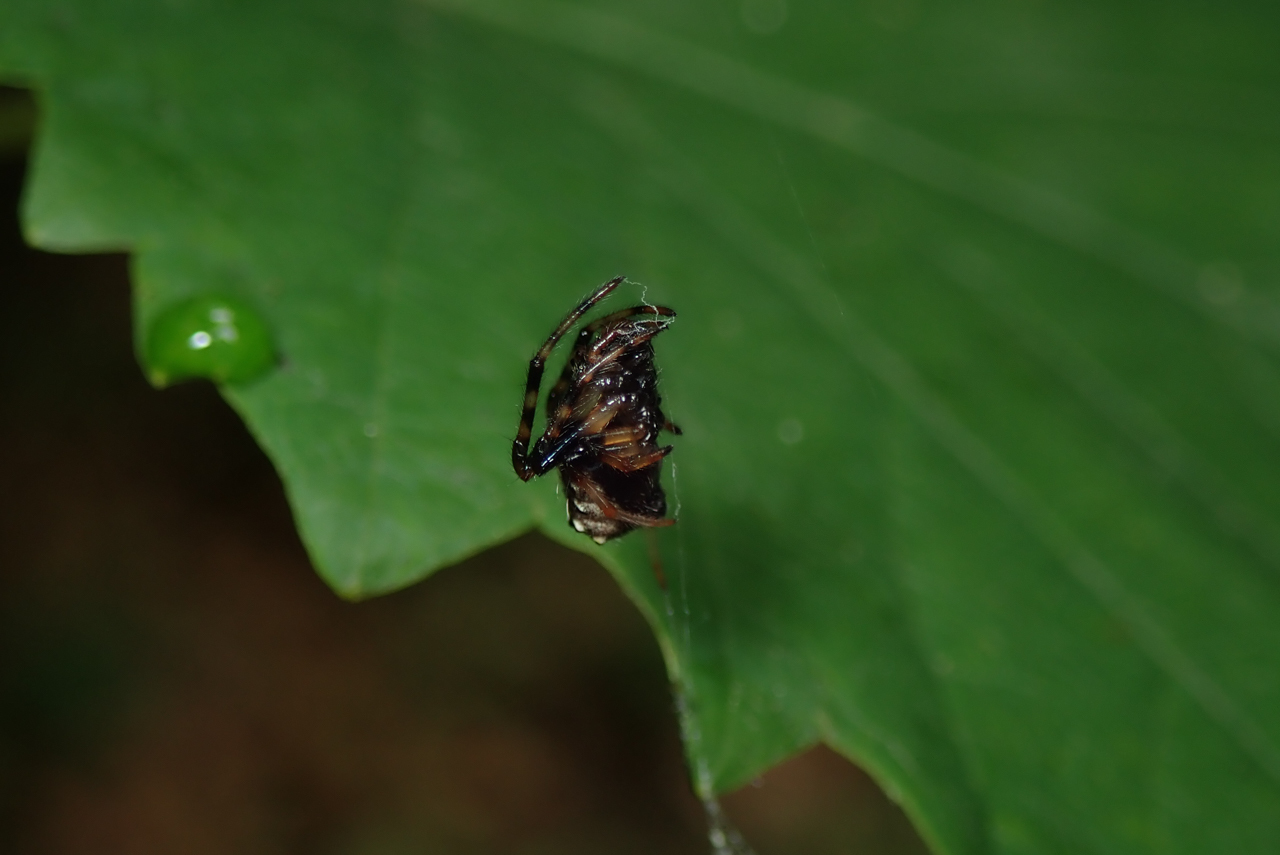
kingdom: Animalia
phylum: Arthropoda
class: Arachnida
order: Araneae
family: Araneidae
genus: Verrucosa
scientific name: Verrucosa arenata
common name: Orb weavers
